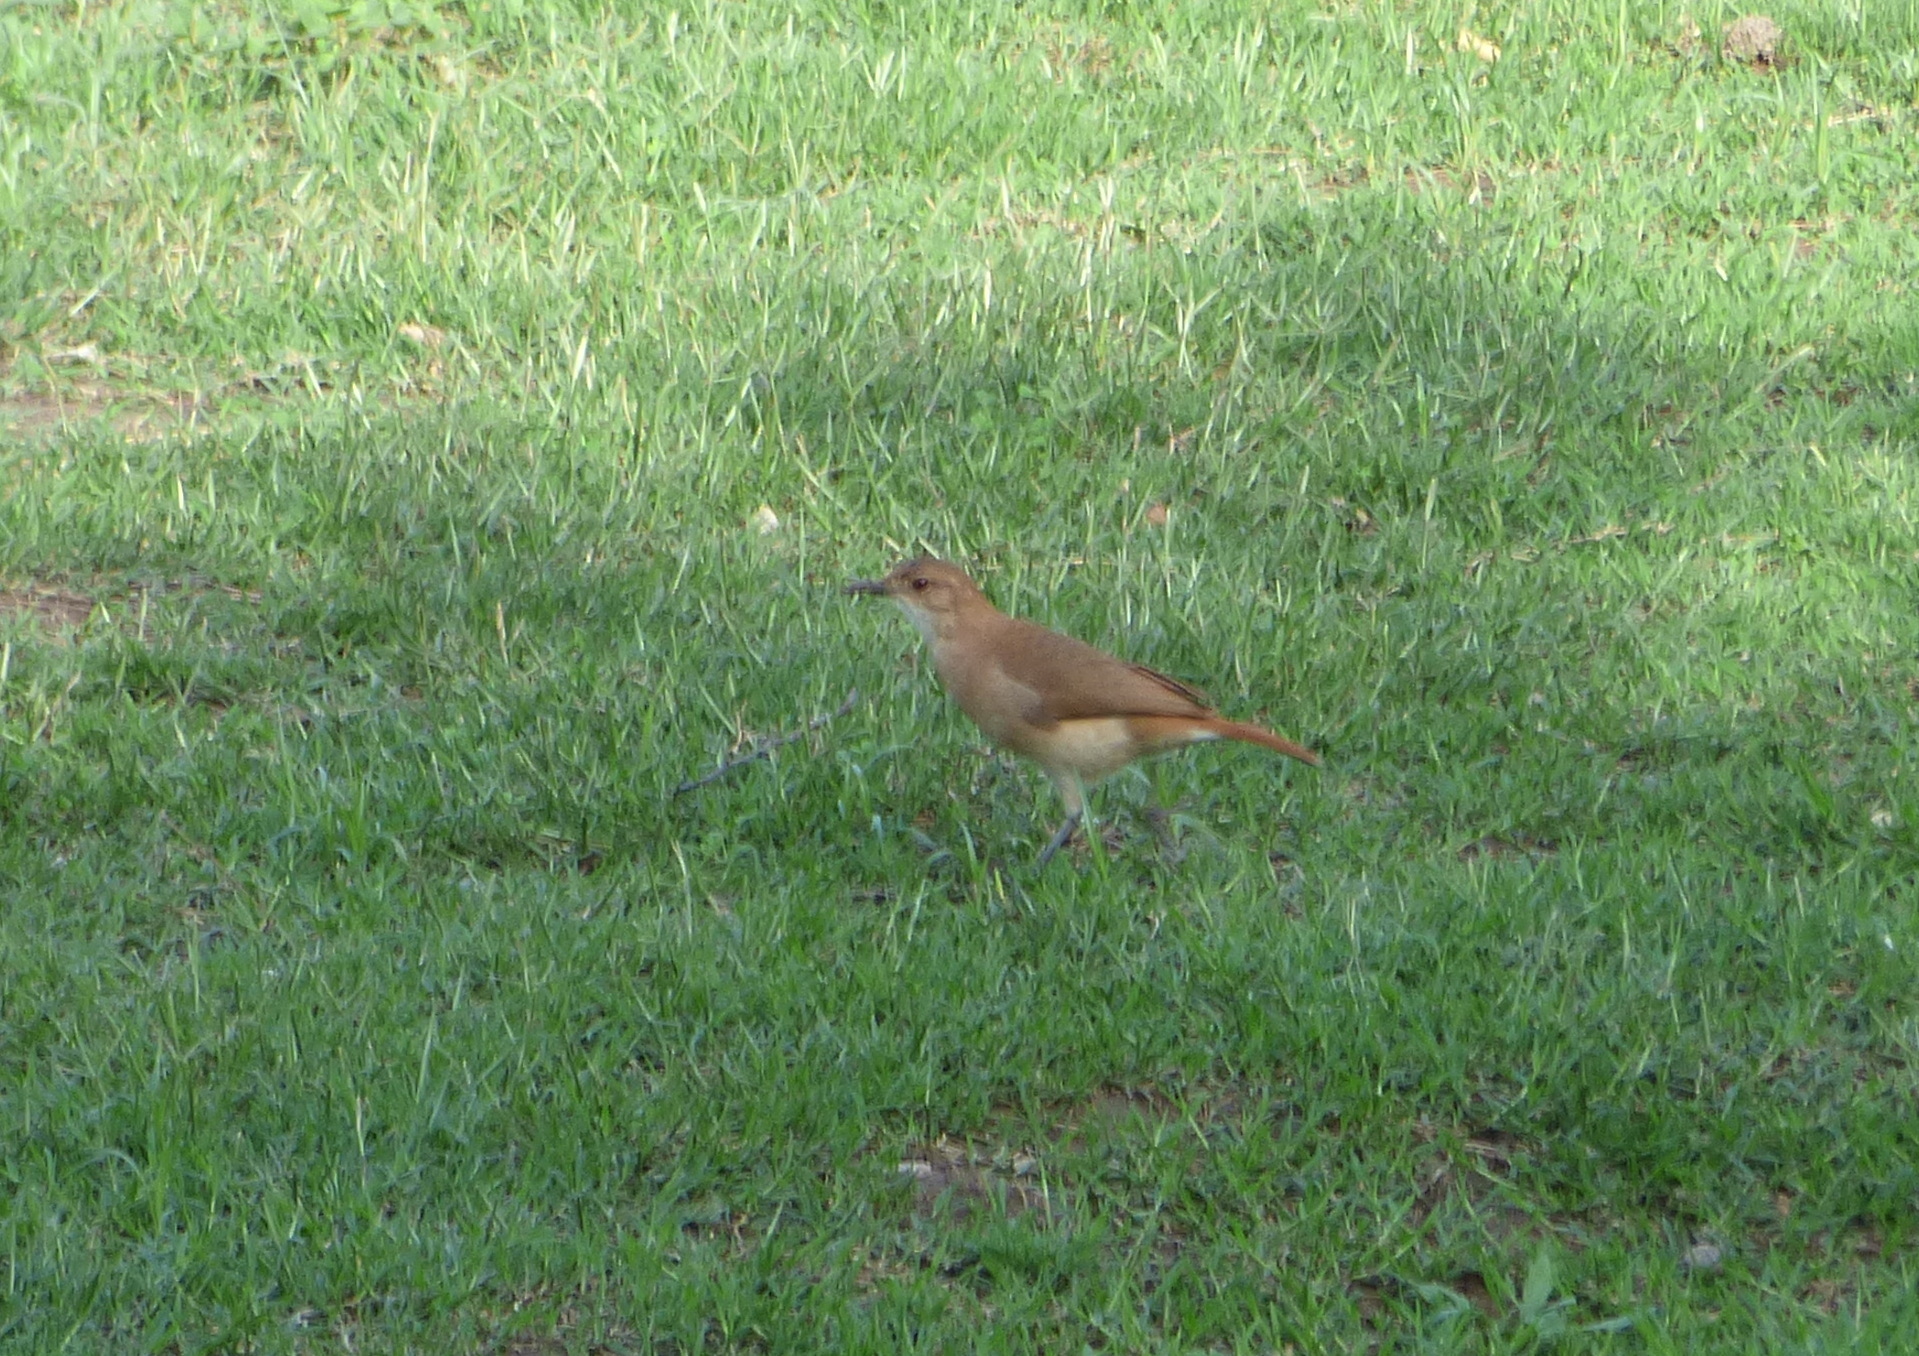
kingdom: Animalia
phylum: Chordata
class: Aves
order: Passeriformes
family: Furnariidae
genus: Furnarius
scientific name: Furnarius rufus
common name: Rufous hornero
